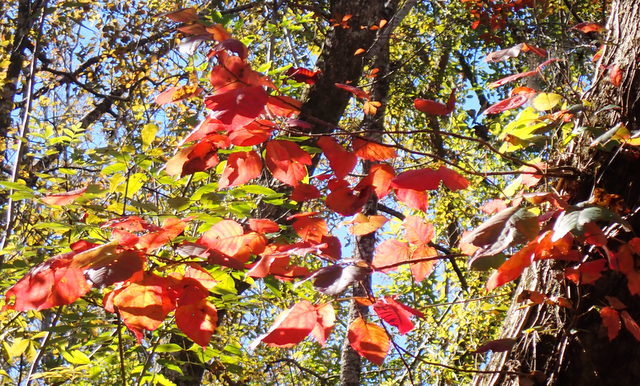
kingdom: Plantae
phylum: Tracheophyta
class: Magnoliopsida
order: Sapindales
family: Anacardiaceae
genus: Toxicodendron
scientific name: Toxicodendron radicans
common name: Poison ivy
